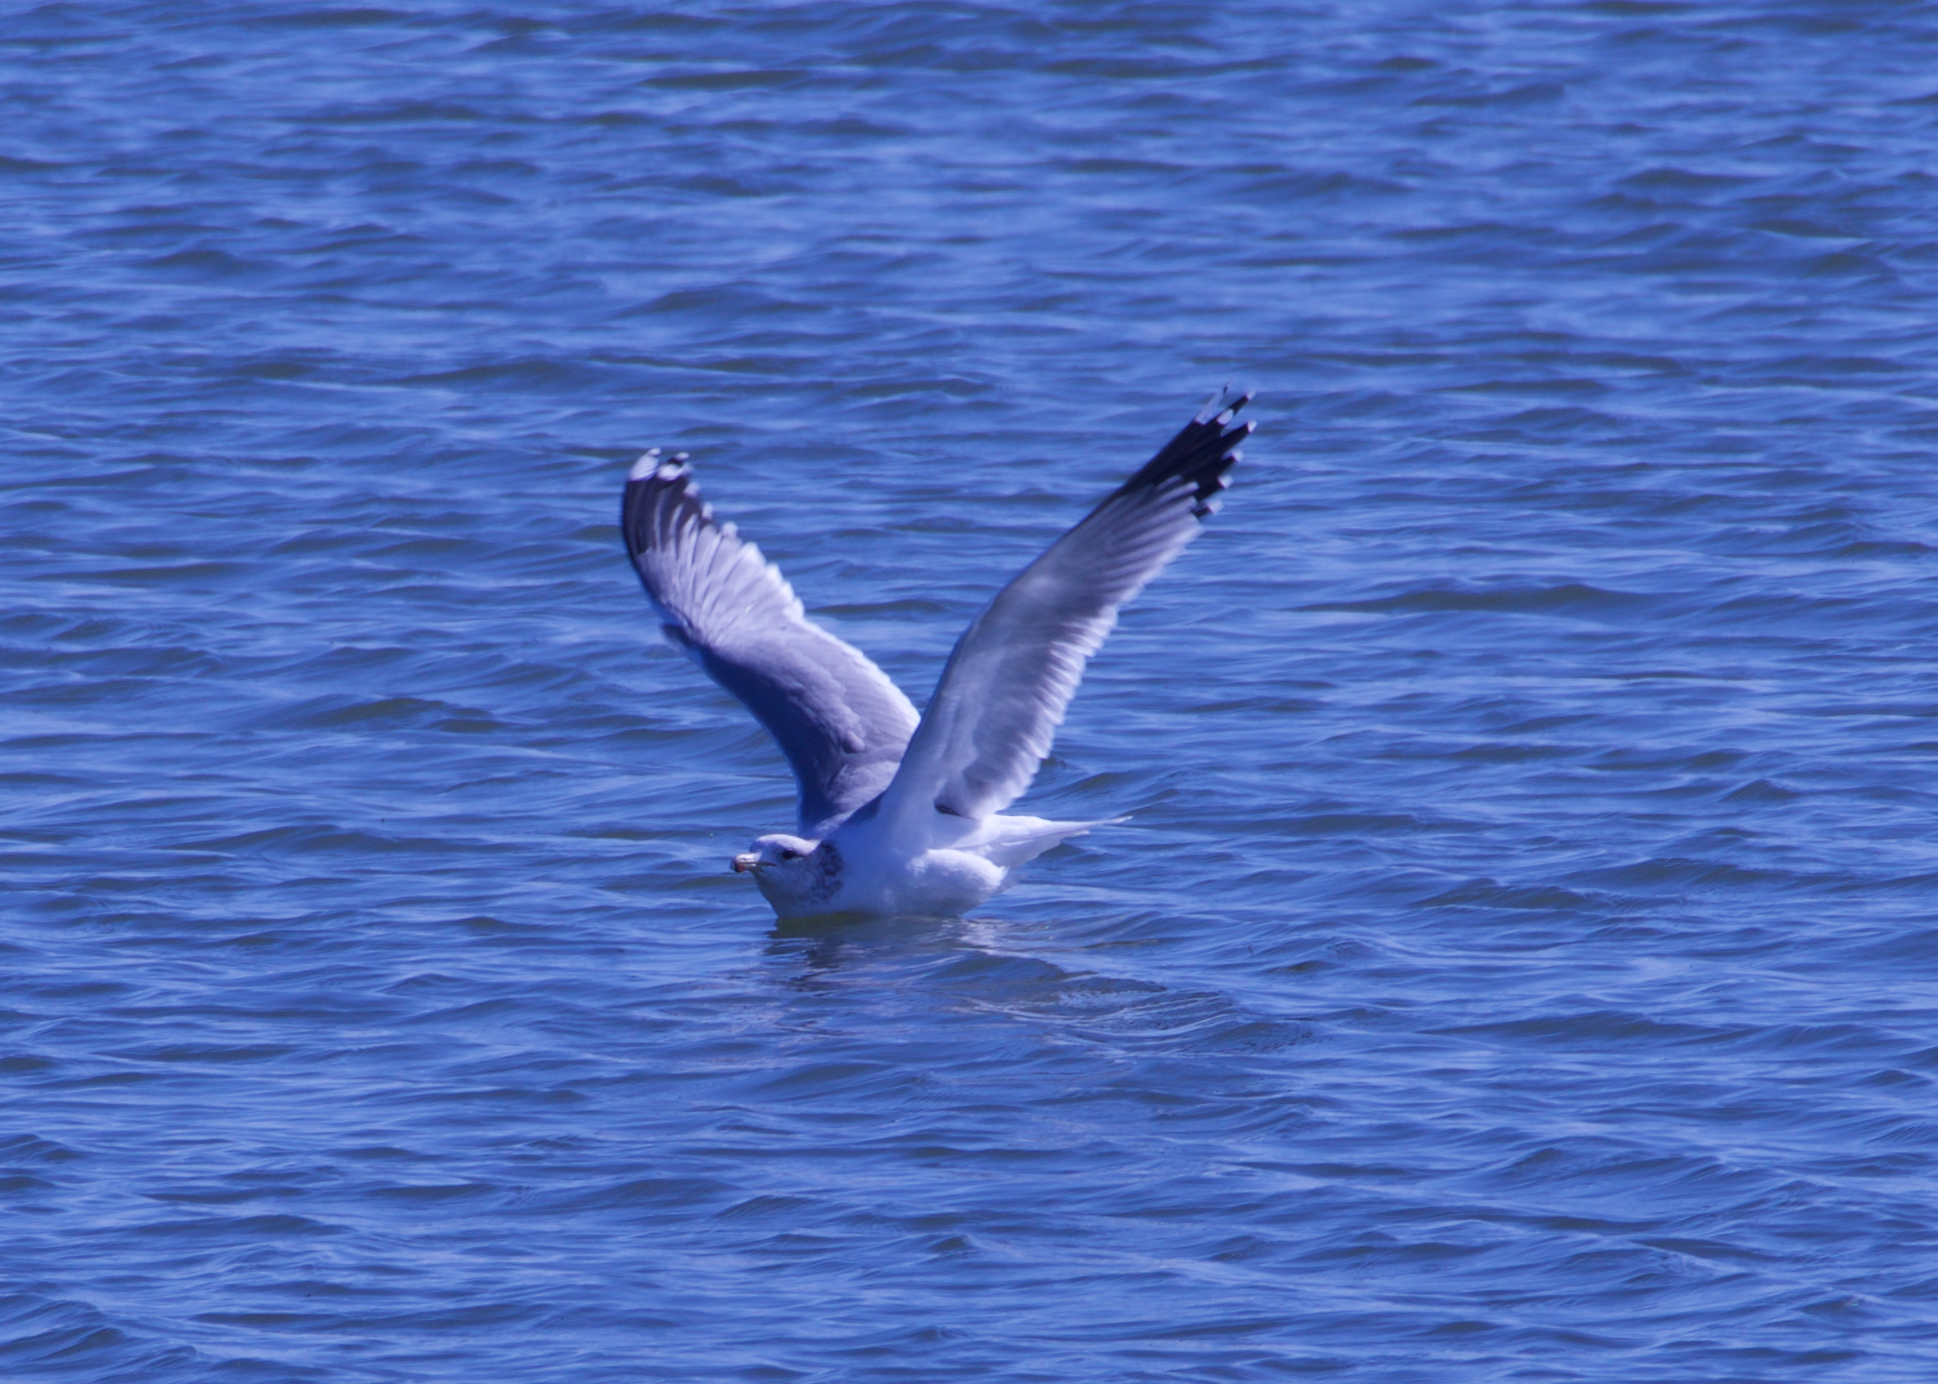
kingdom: Animalia
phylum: Chordata
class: Aves
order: Charadriiformes
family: Laridae
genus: Larus
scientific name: Larus californicus
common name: California gull
